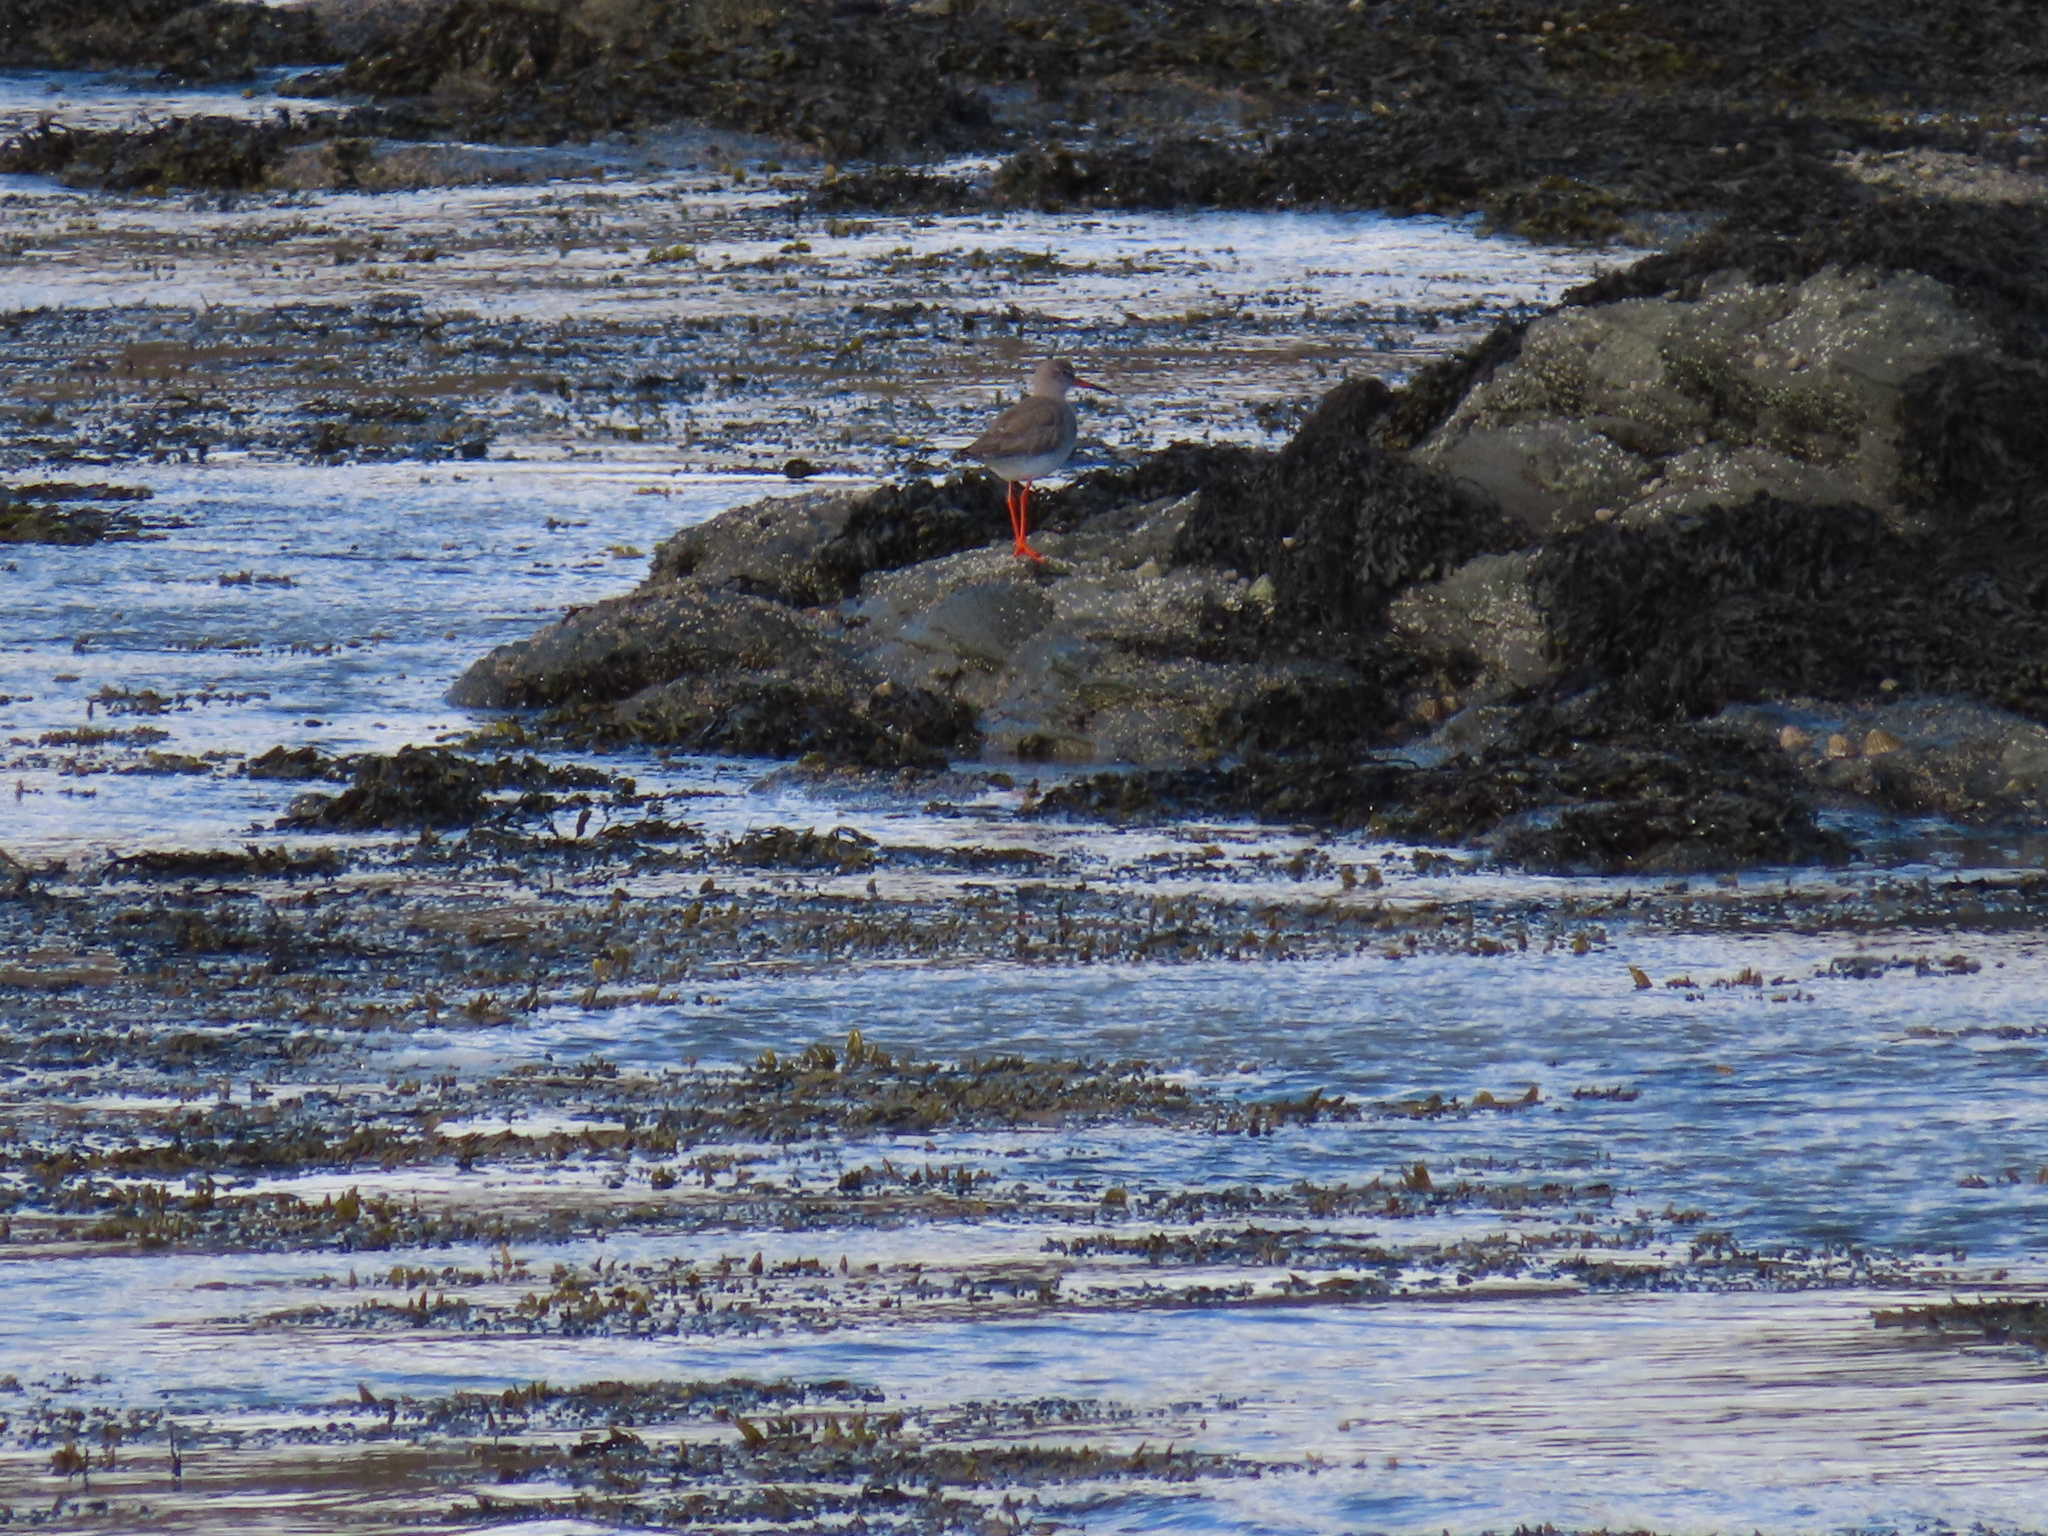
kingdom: Animalia
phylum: Chordata
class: Aves
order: Charadriiformes
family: Scolopacidae
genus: Tringa
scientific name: Tringa totanus
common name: Common redshank
